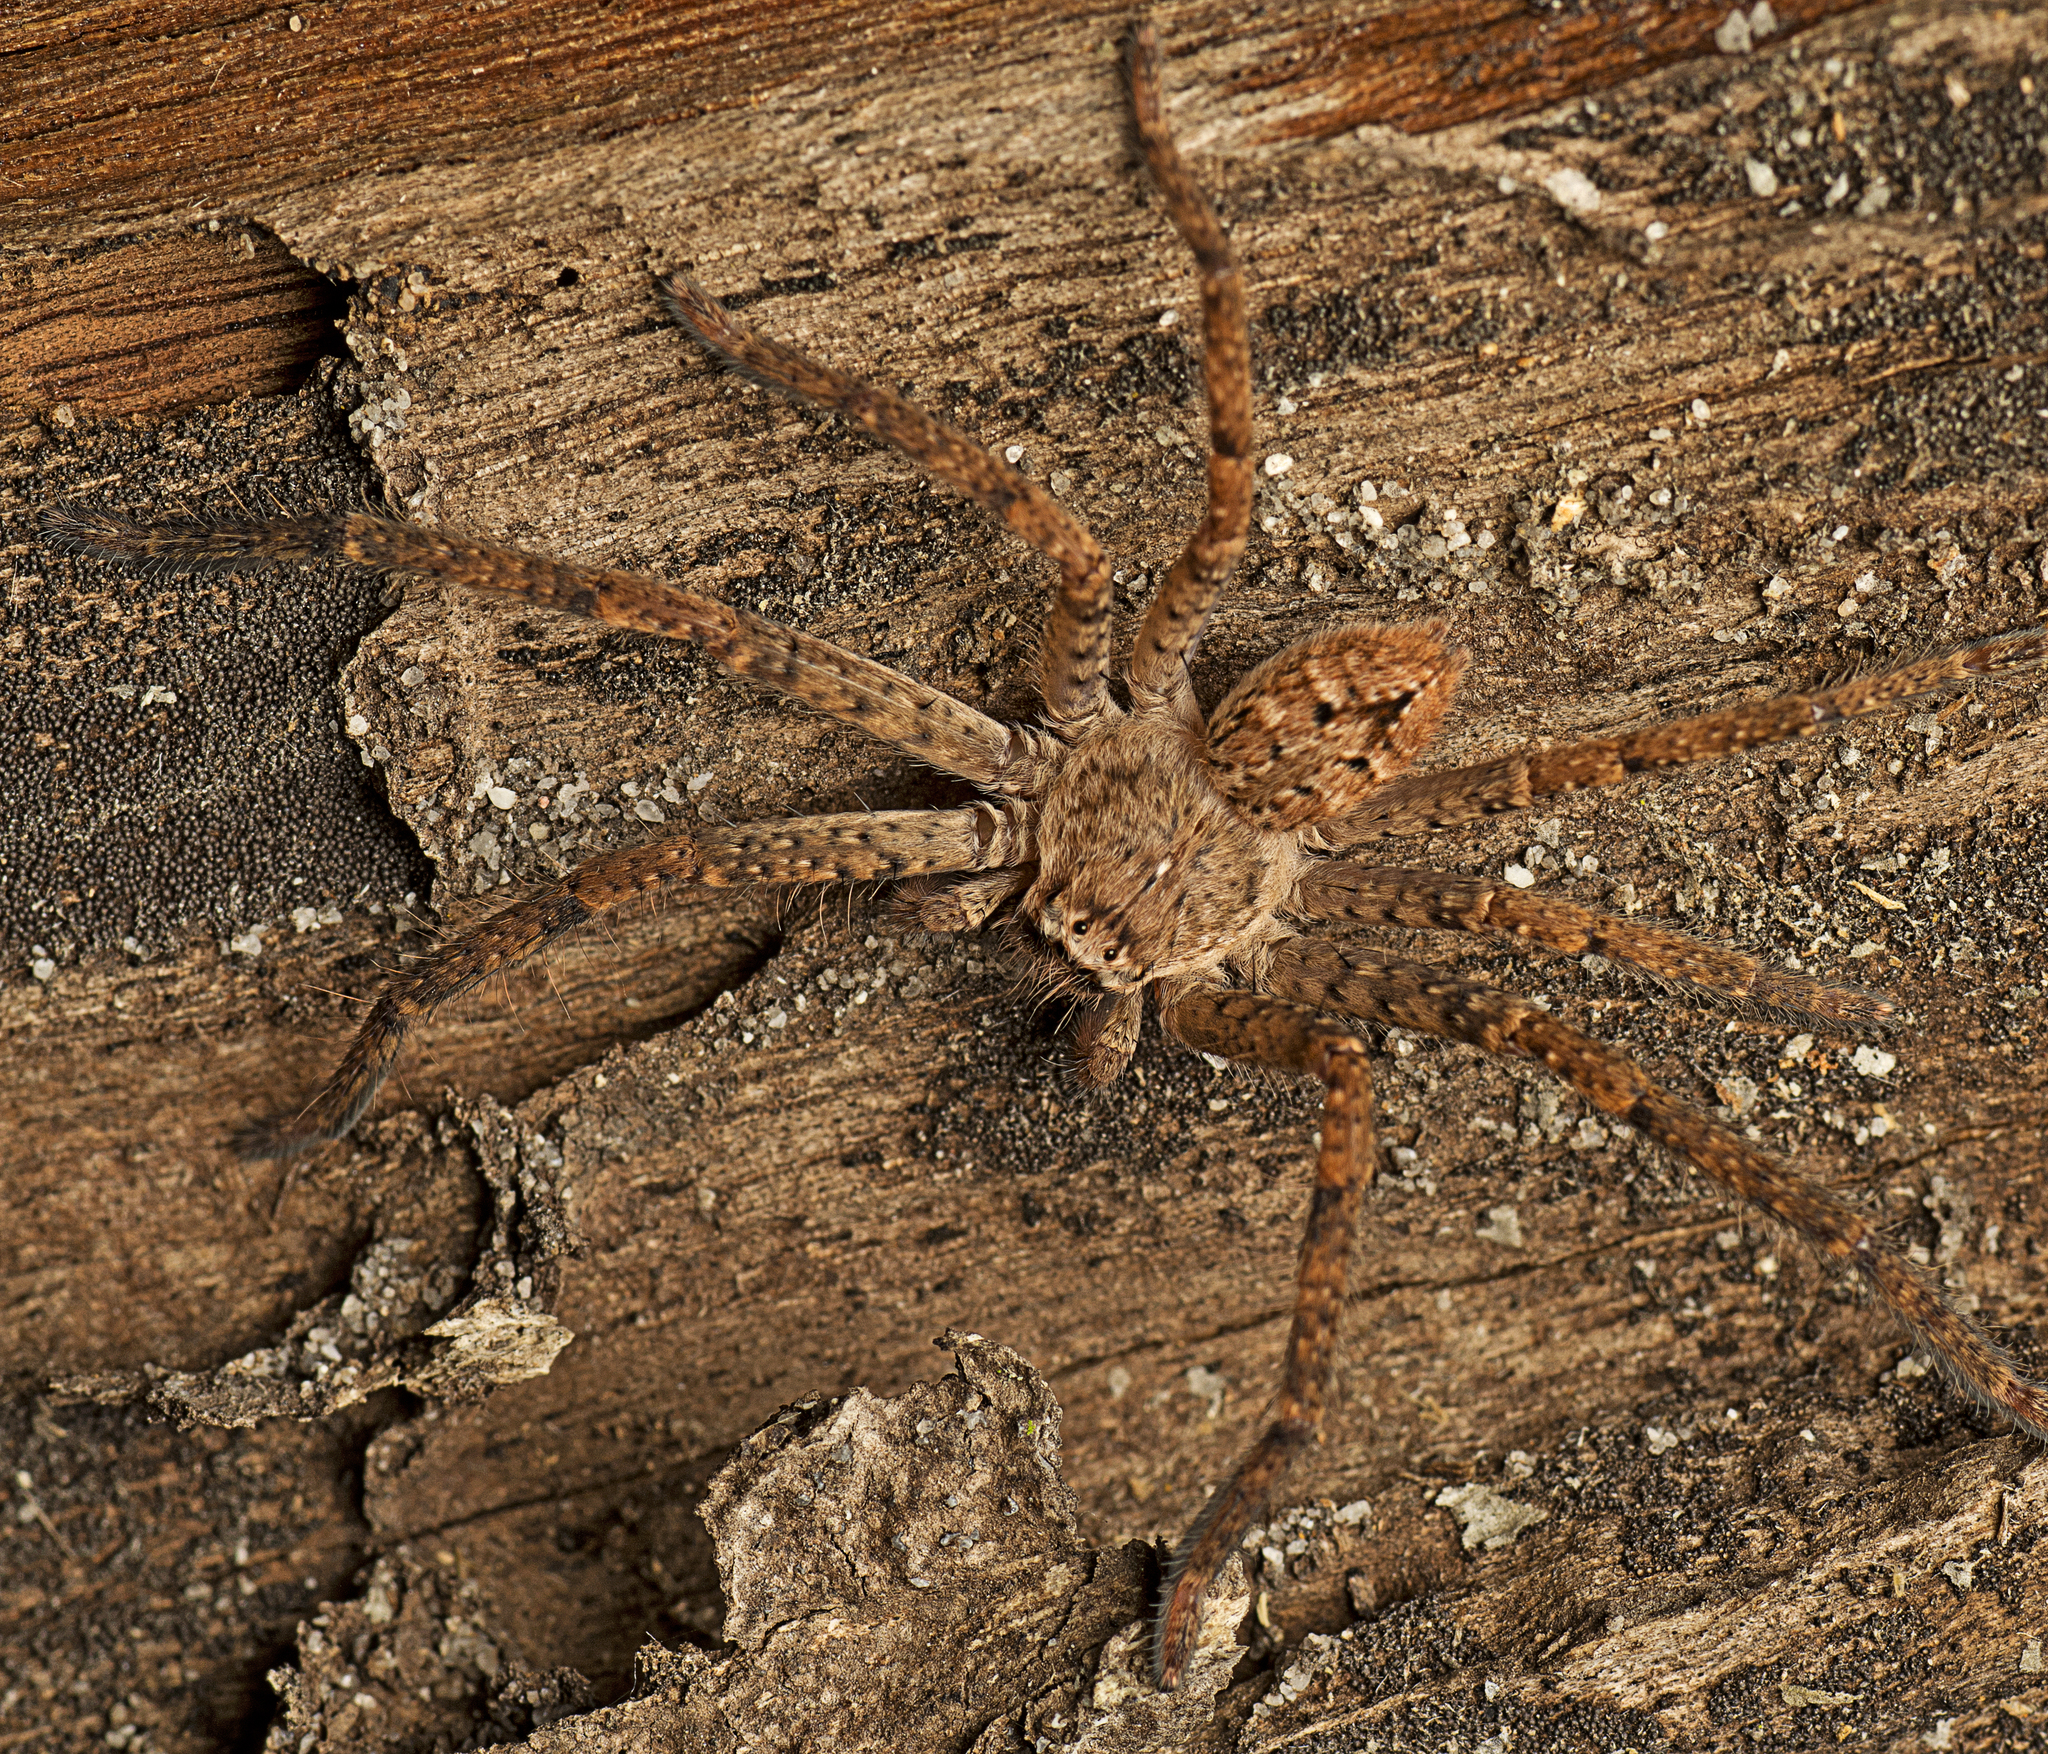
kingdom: Animalia
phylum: Arthropoda
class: Arachnida
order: Araneae
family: Sparassidae
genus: Isopedella
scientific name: Isopedella flavida
